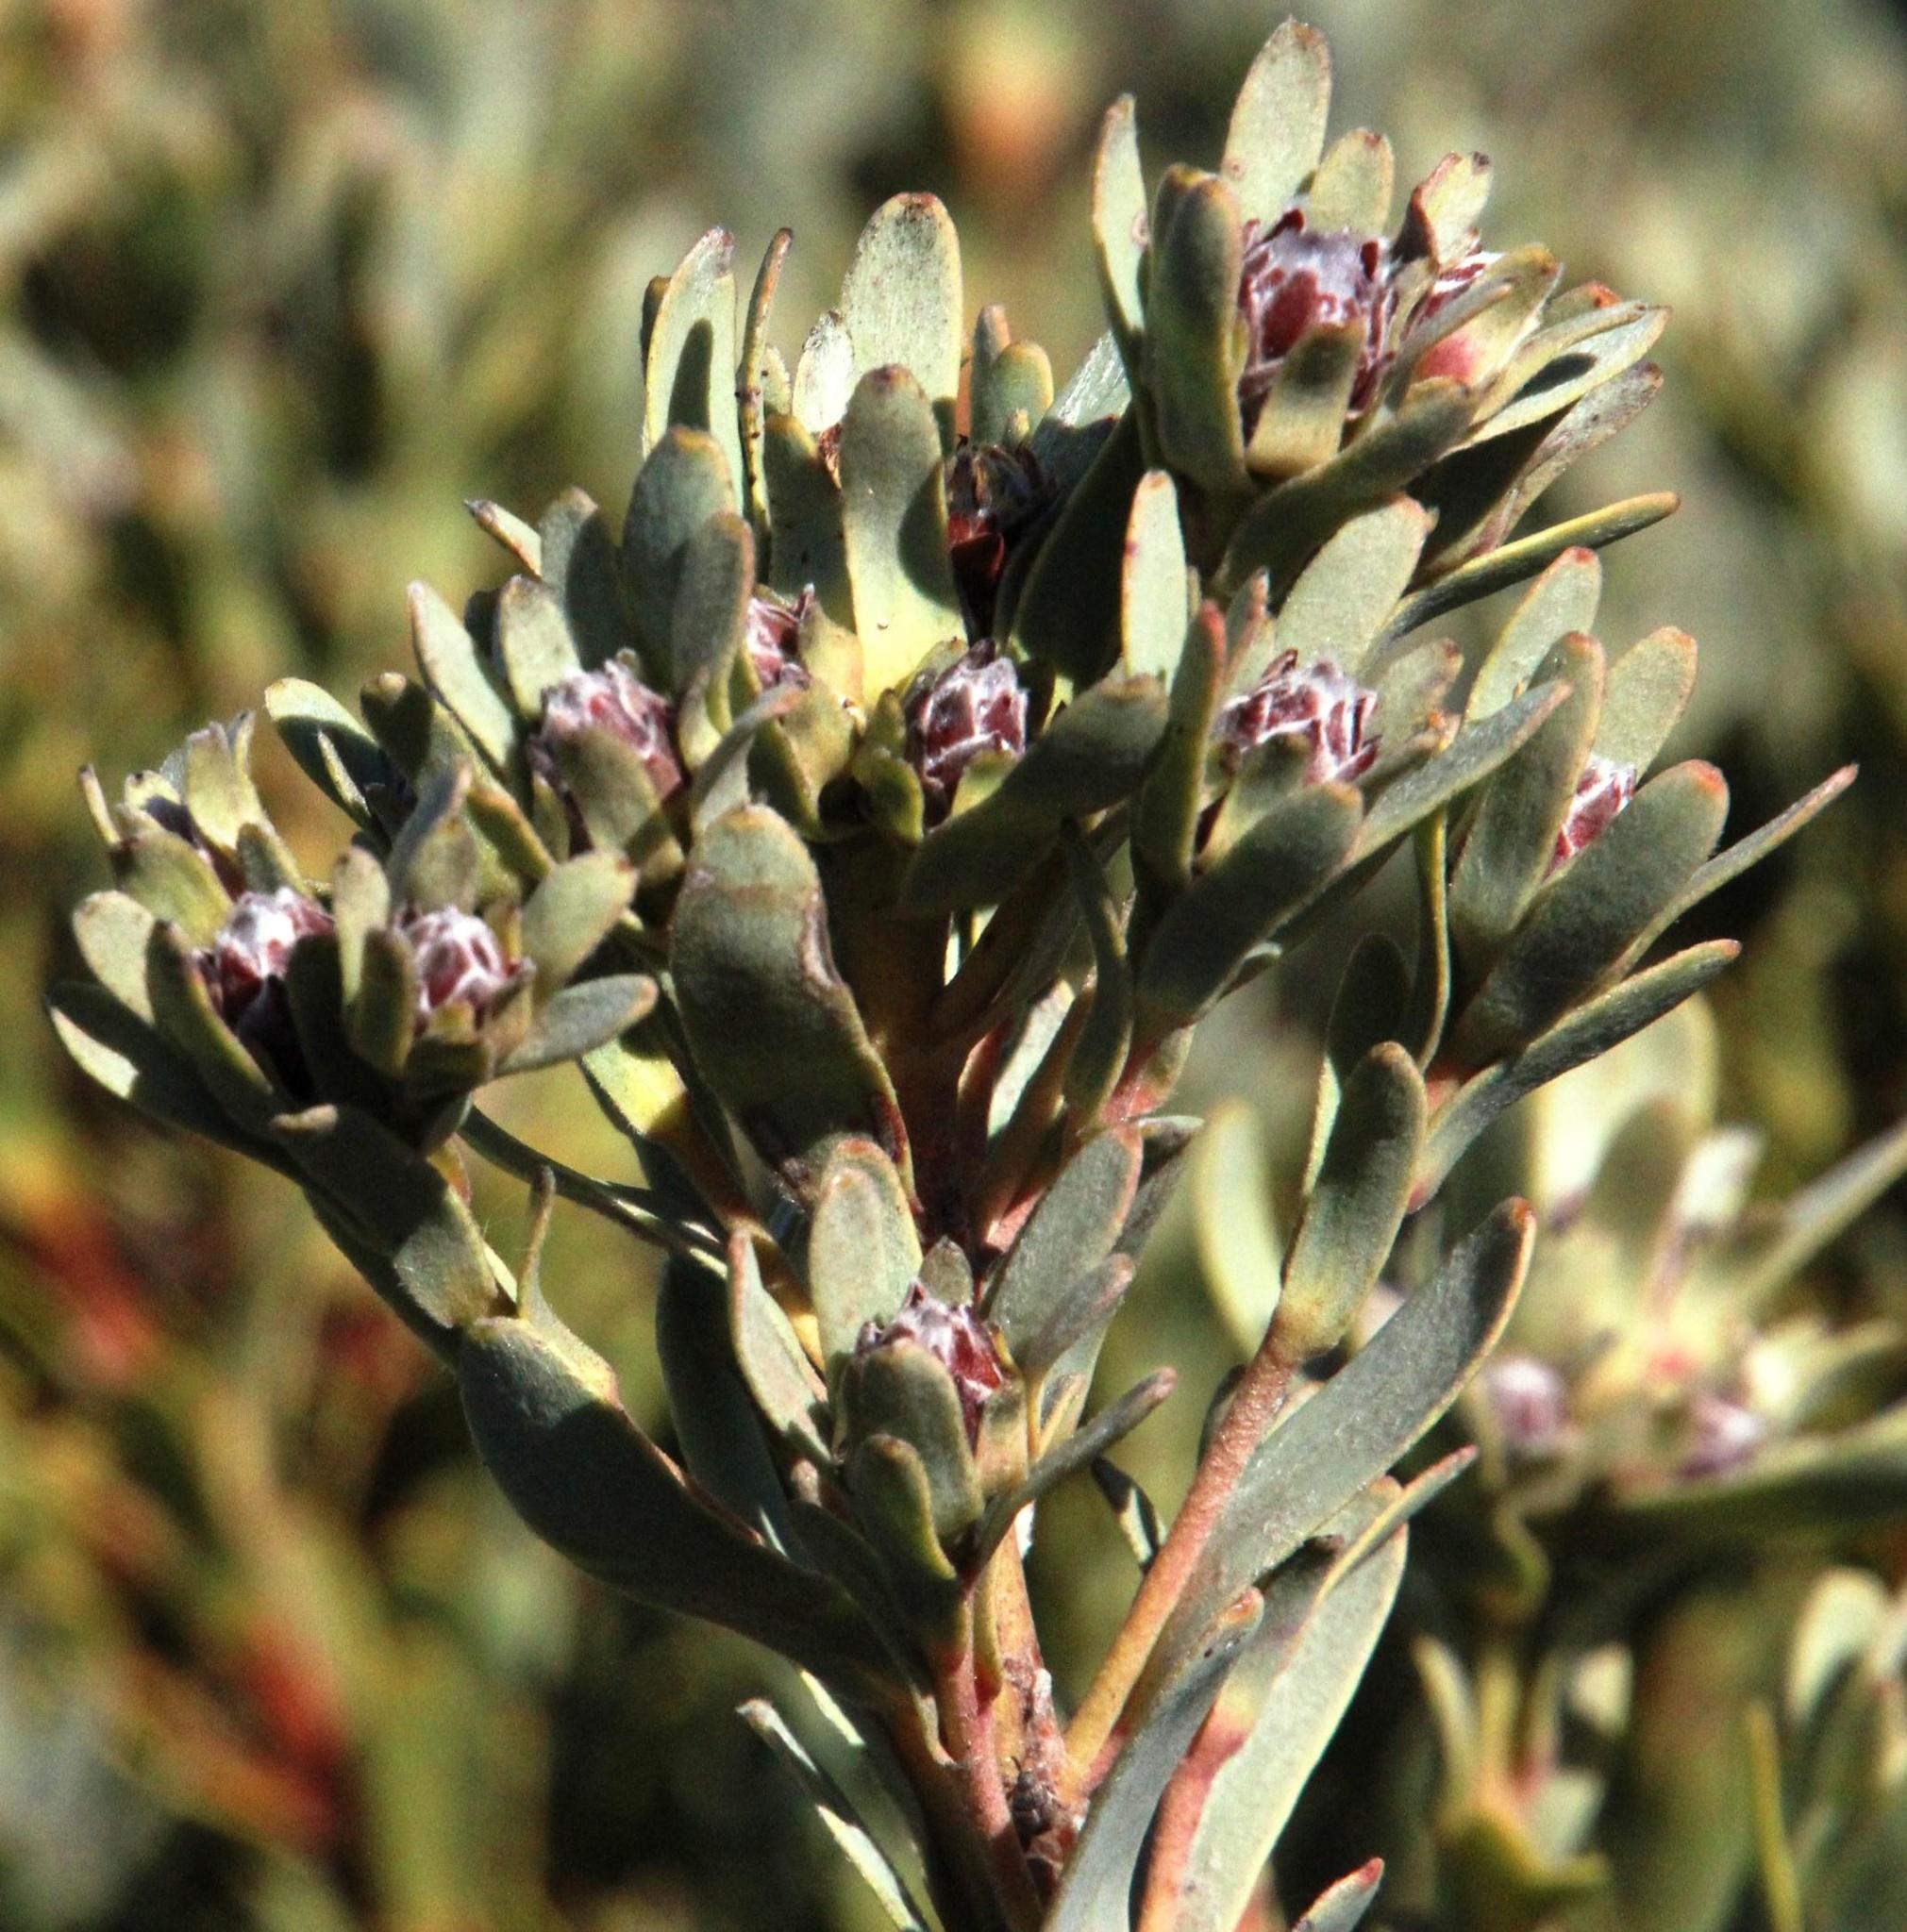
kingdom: Plantae
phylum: Tracheophyta
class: Magnoliopsida
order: Proteales
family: Proteaceae
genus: Leucadendron
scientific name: Leucadendron remotum
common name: Nieuwoudtville conebush
